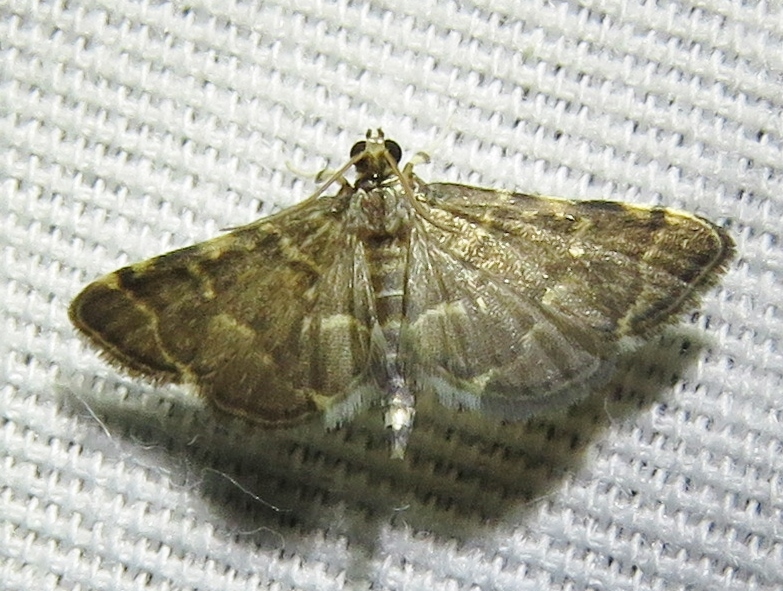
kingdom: Animalia
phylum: Arthropoda
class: Insecta
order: Lepidoptera
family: Crambidae
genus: Anageshna
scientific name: Anageshna primordialis
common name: Yellow-spotted webworm moth
